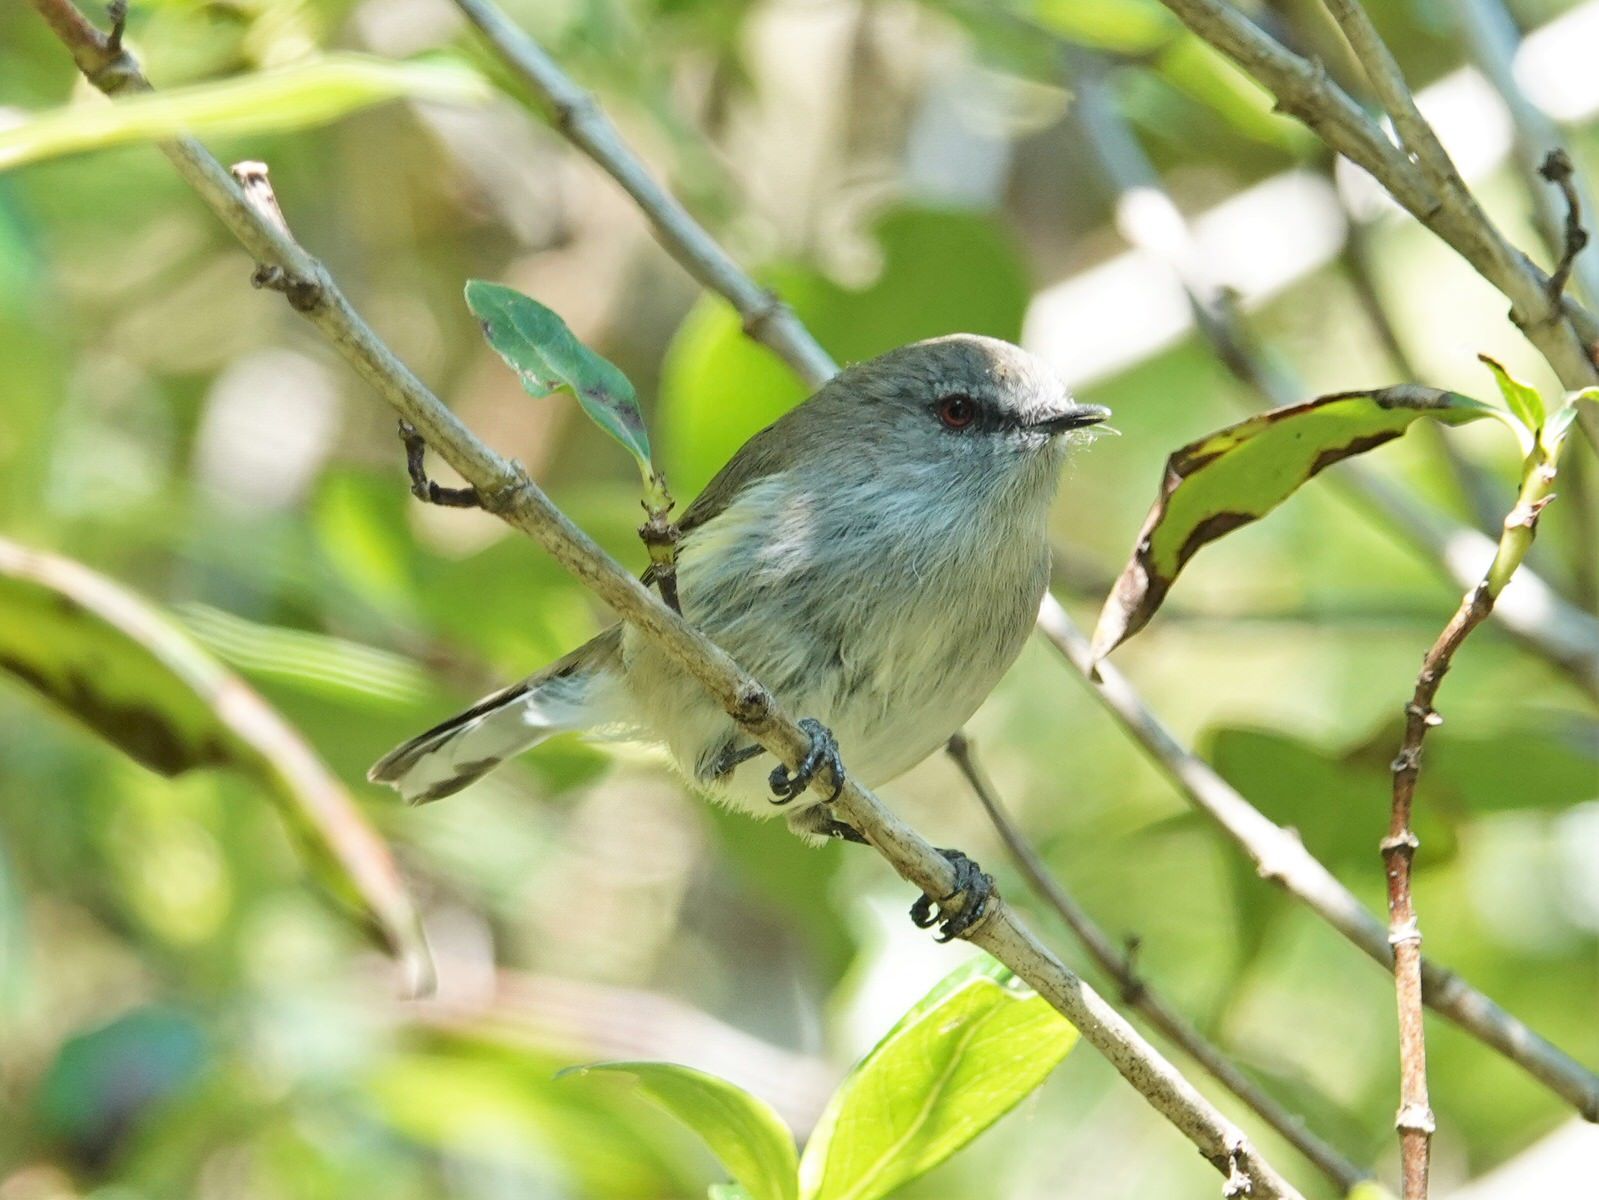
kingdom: Animalia
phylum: Chordata
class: Aves
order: Passeriformes
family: Acanthizidae
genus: Gerygone
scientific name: Gerygone igata
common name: Grey gerygone
